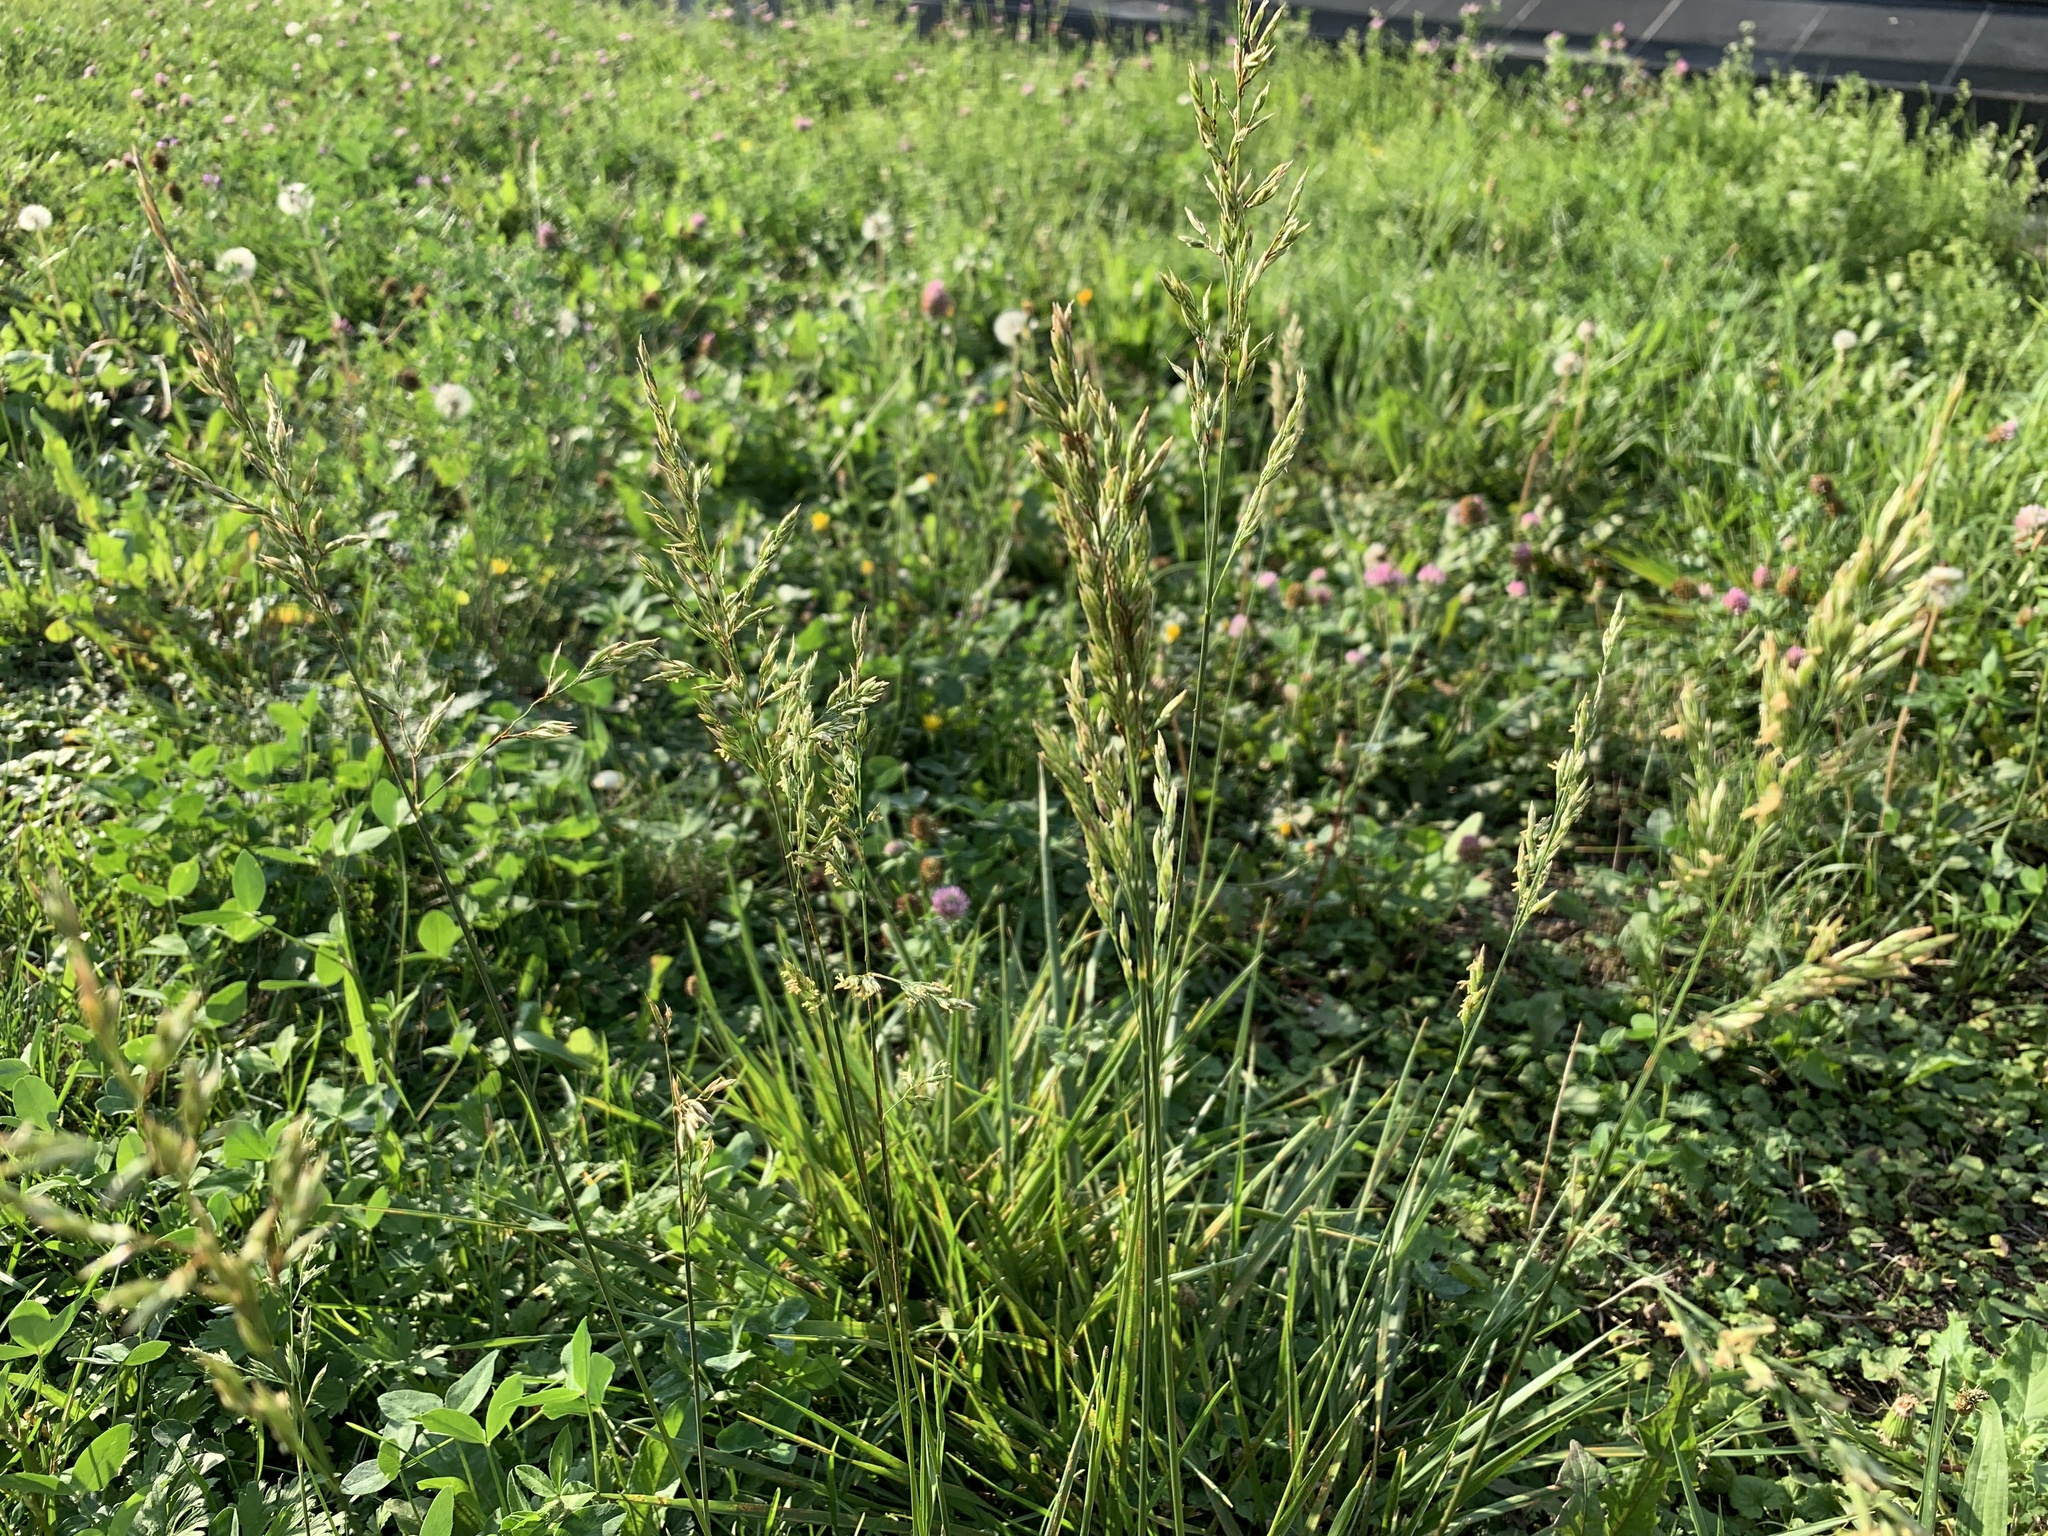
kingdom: Plantae
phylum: Tracheophyta
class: Liliopsida
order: Poales
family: Poaceae
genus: Lolium
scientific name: Lolium arundinaceum
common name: Reed fescue
